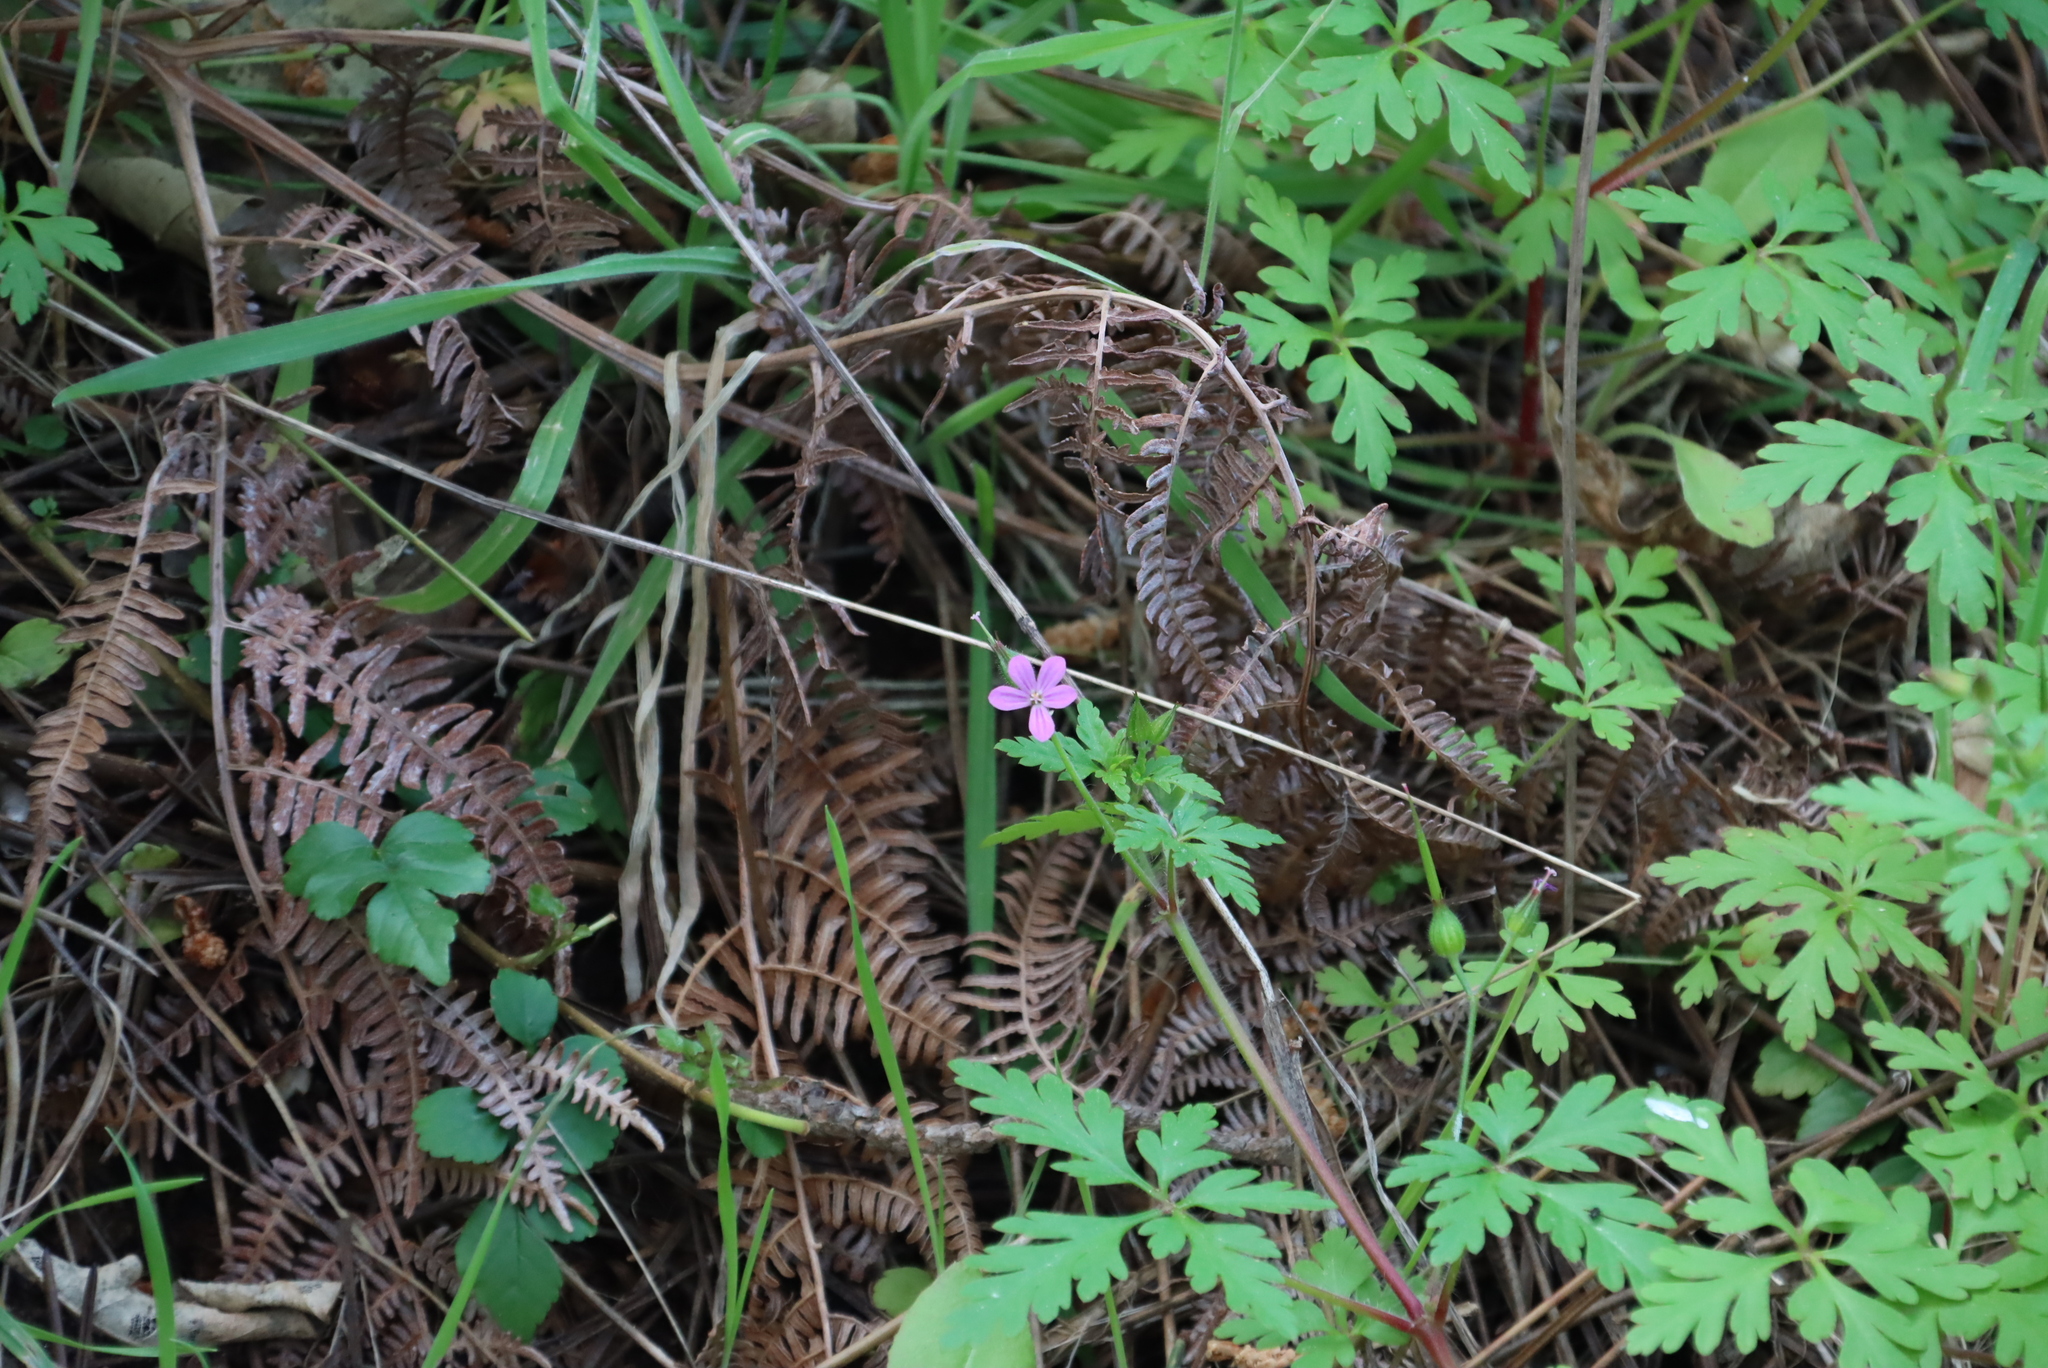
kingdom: Plantae
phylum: Tracheophyta
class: Magnoliopsida
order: Geraniales
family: Geraniaceae
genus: Geranium
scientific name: Geranium robertianum
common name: Herb-robert
